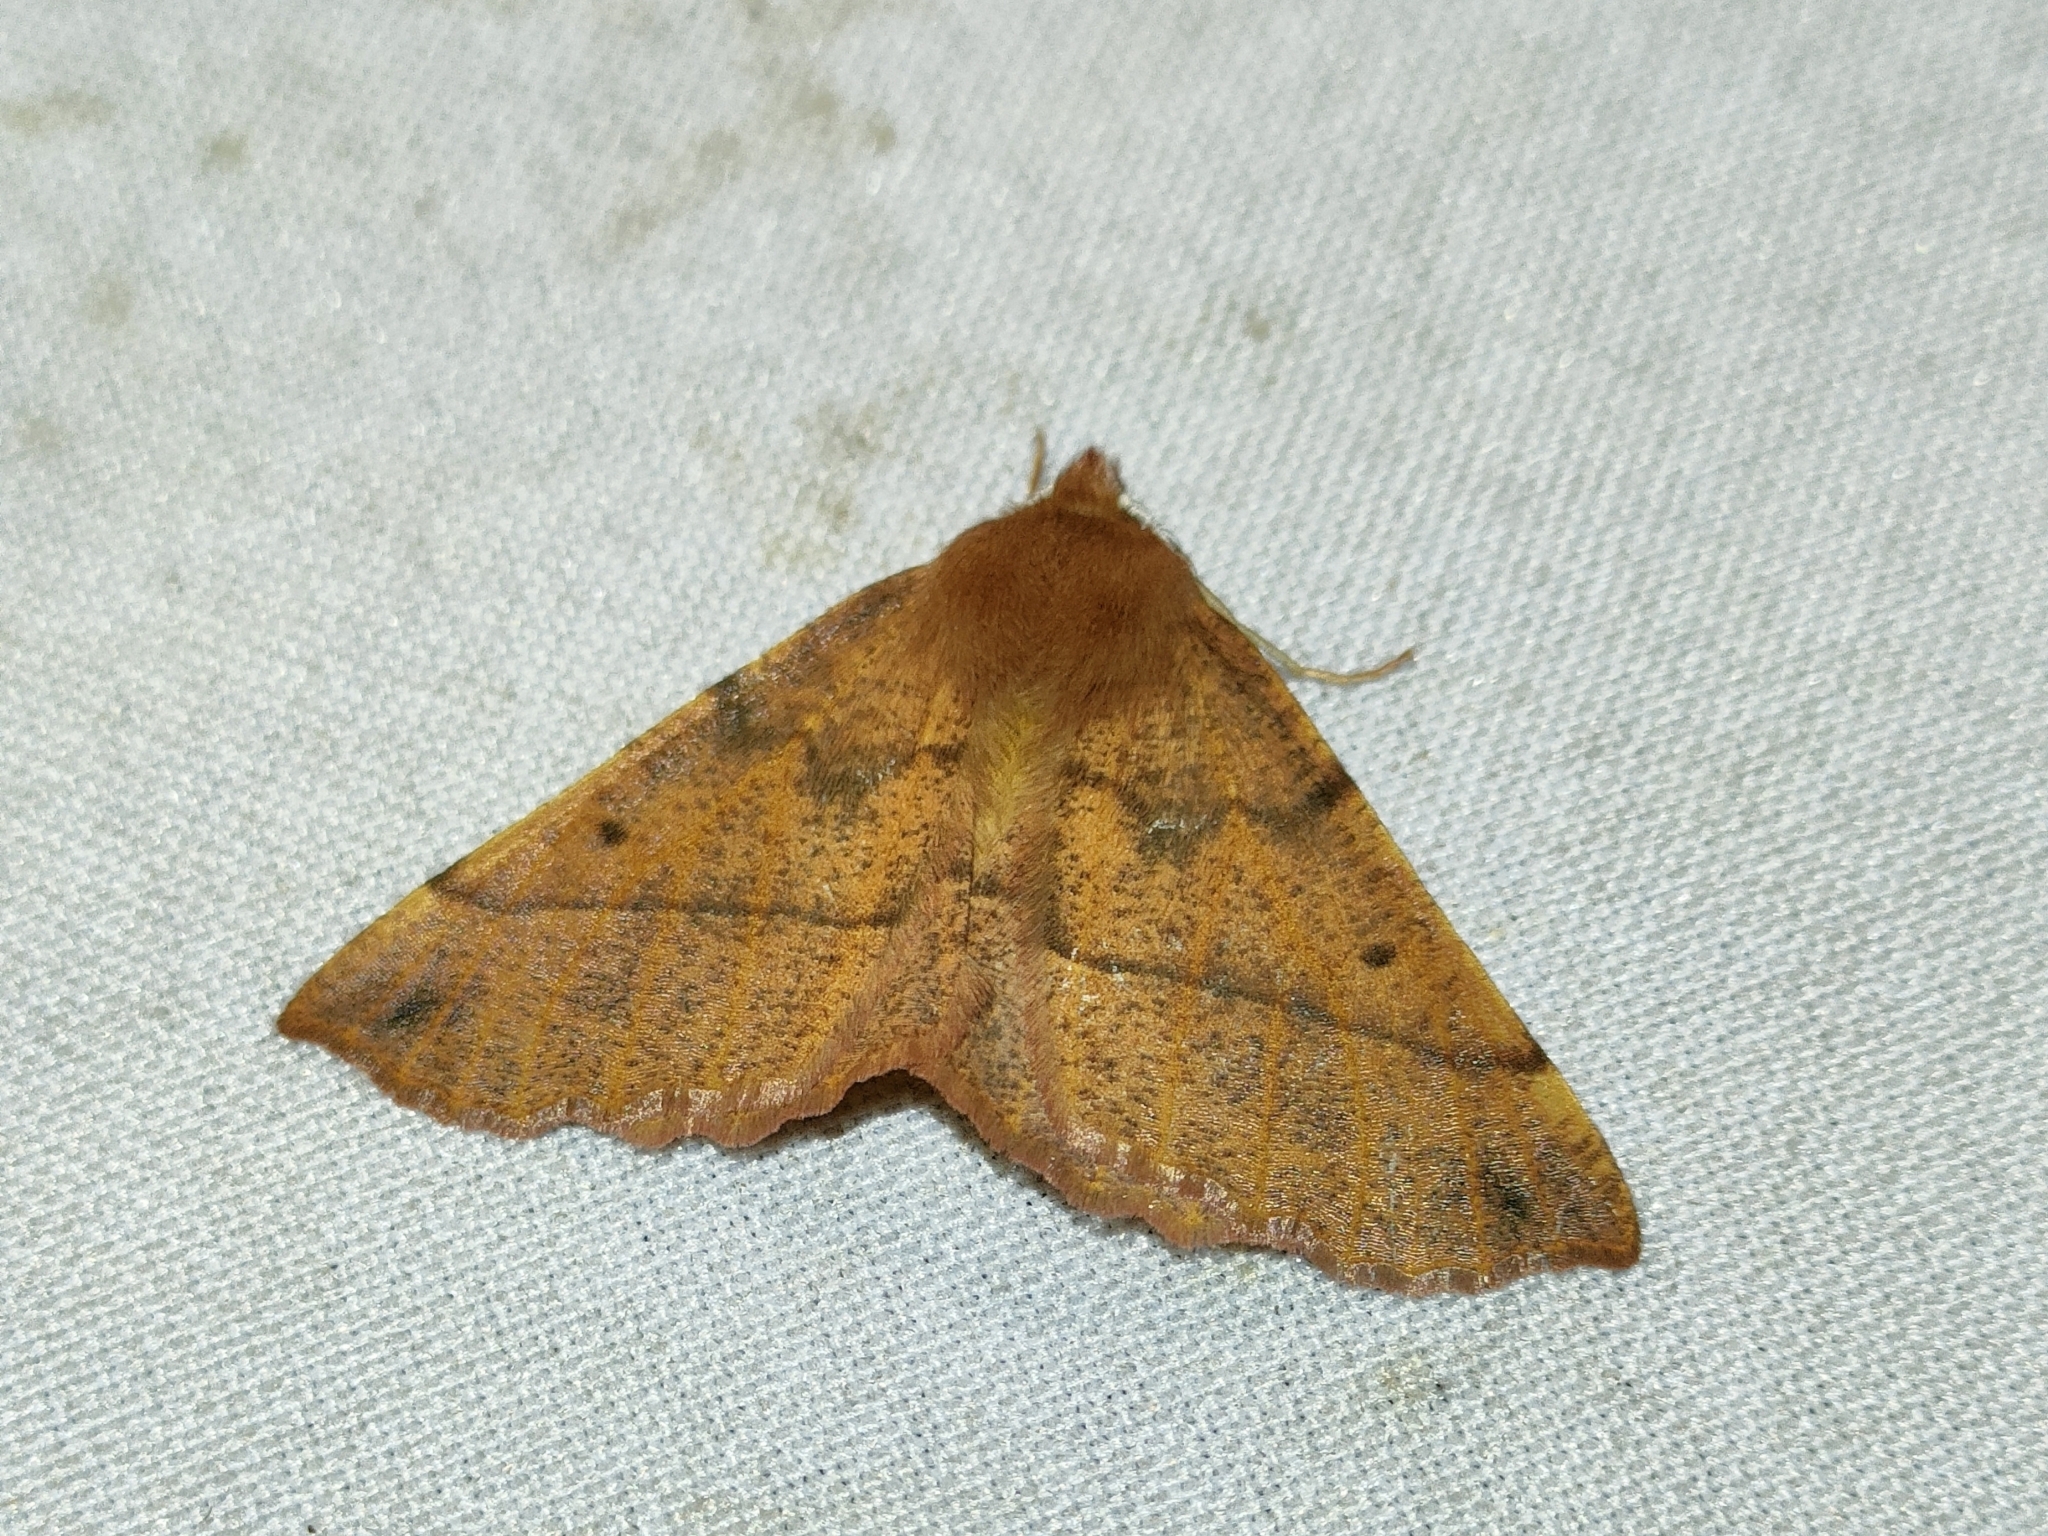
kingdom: Animalia
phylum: Arthropoda
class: Insecta
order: Lepidoptera
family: Geometridae
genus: Colotois
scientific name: Colotois pennaria
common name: Feathered thorn
